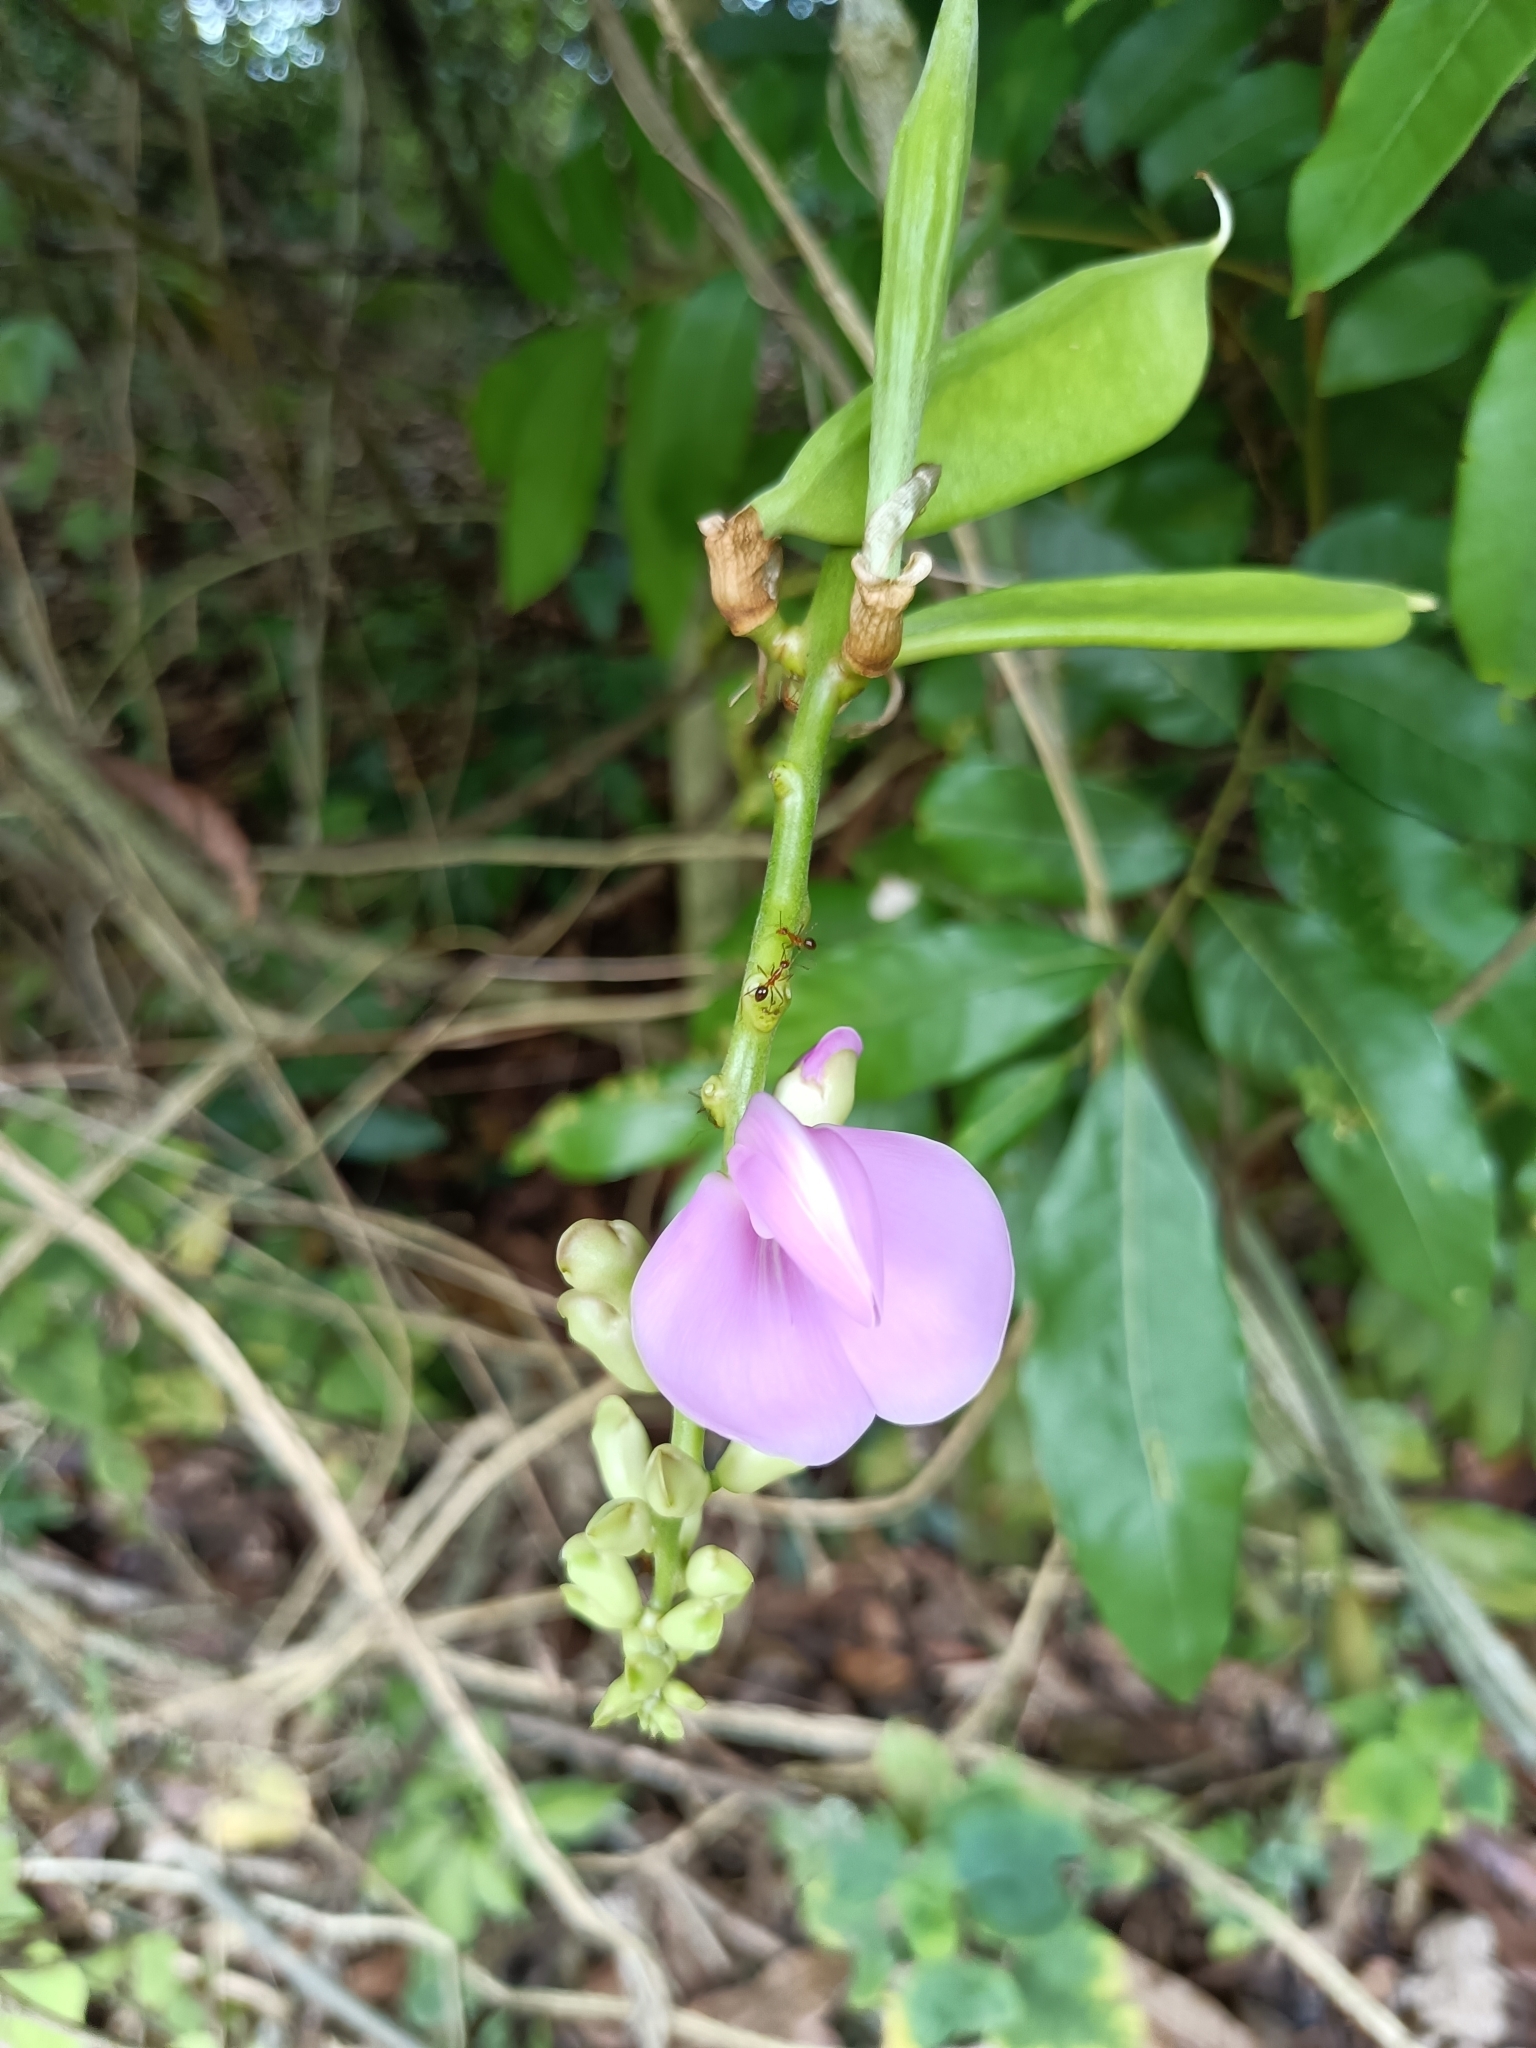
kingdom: Plantae
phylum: Tracheophyta
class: Magnoliopsida
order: Fabales
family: Fabaceae
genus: Canavalia
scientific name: Canavalia lineata
